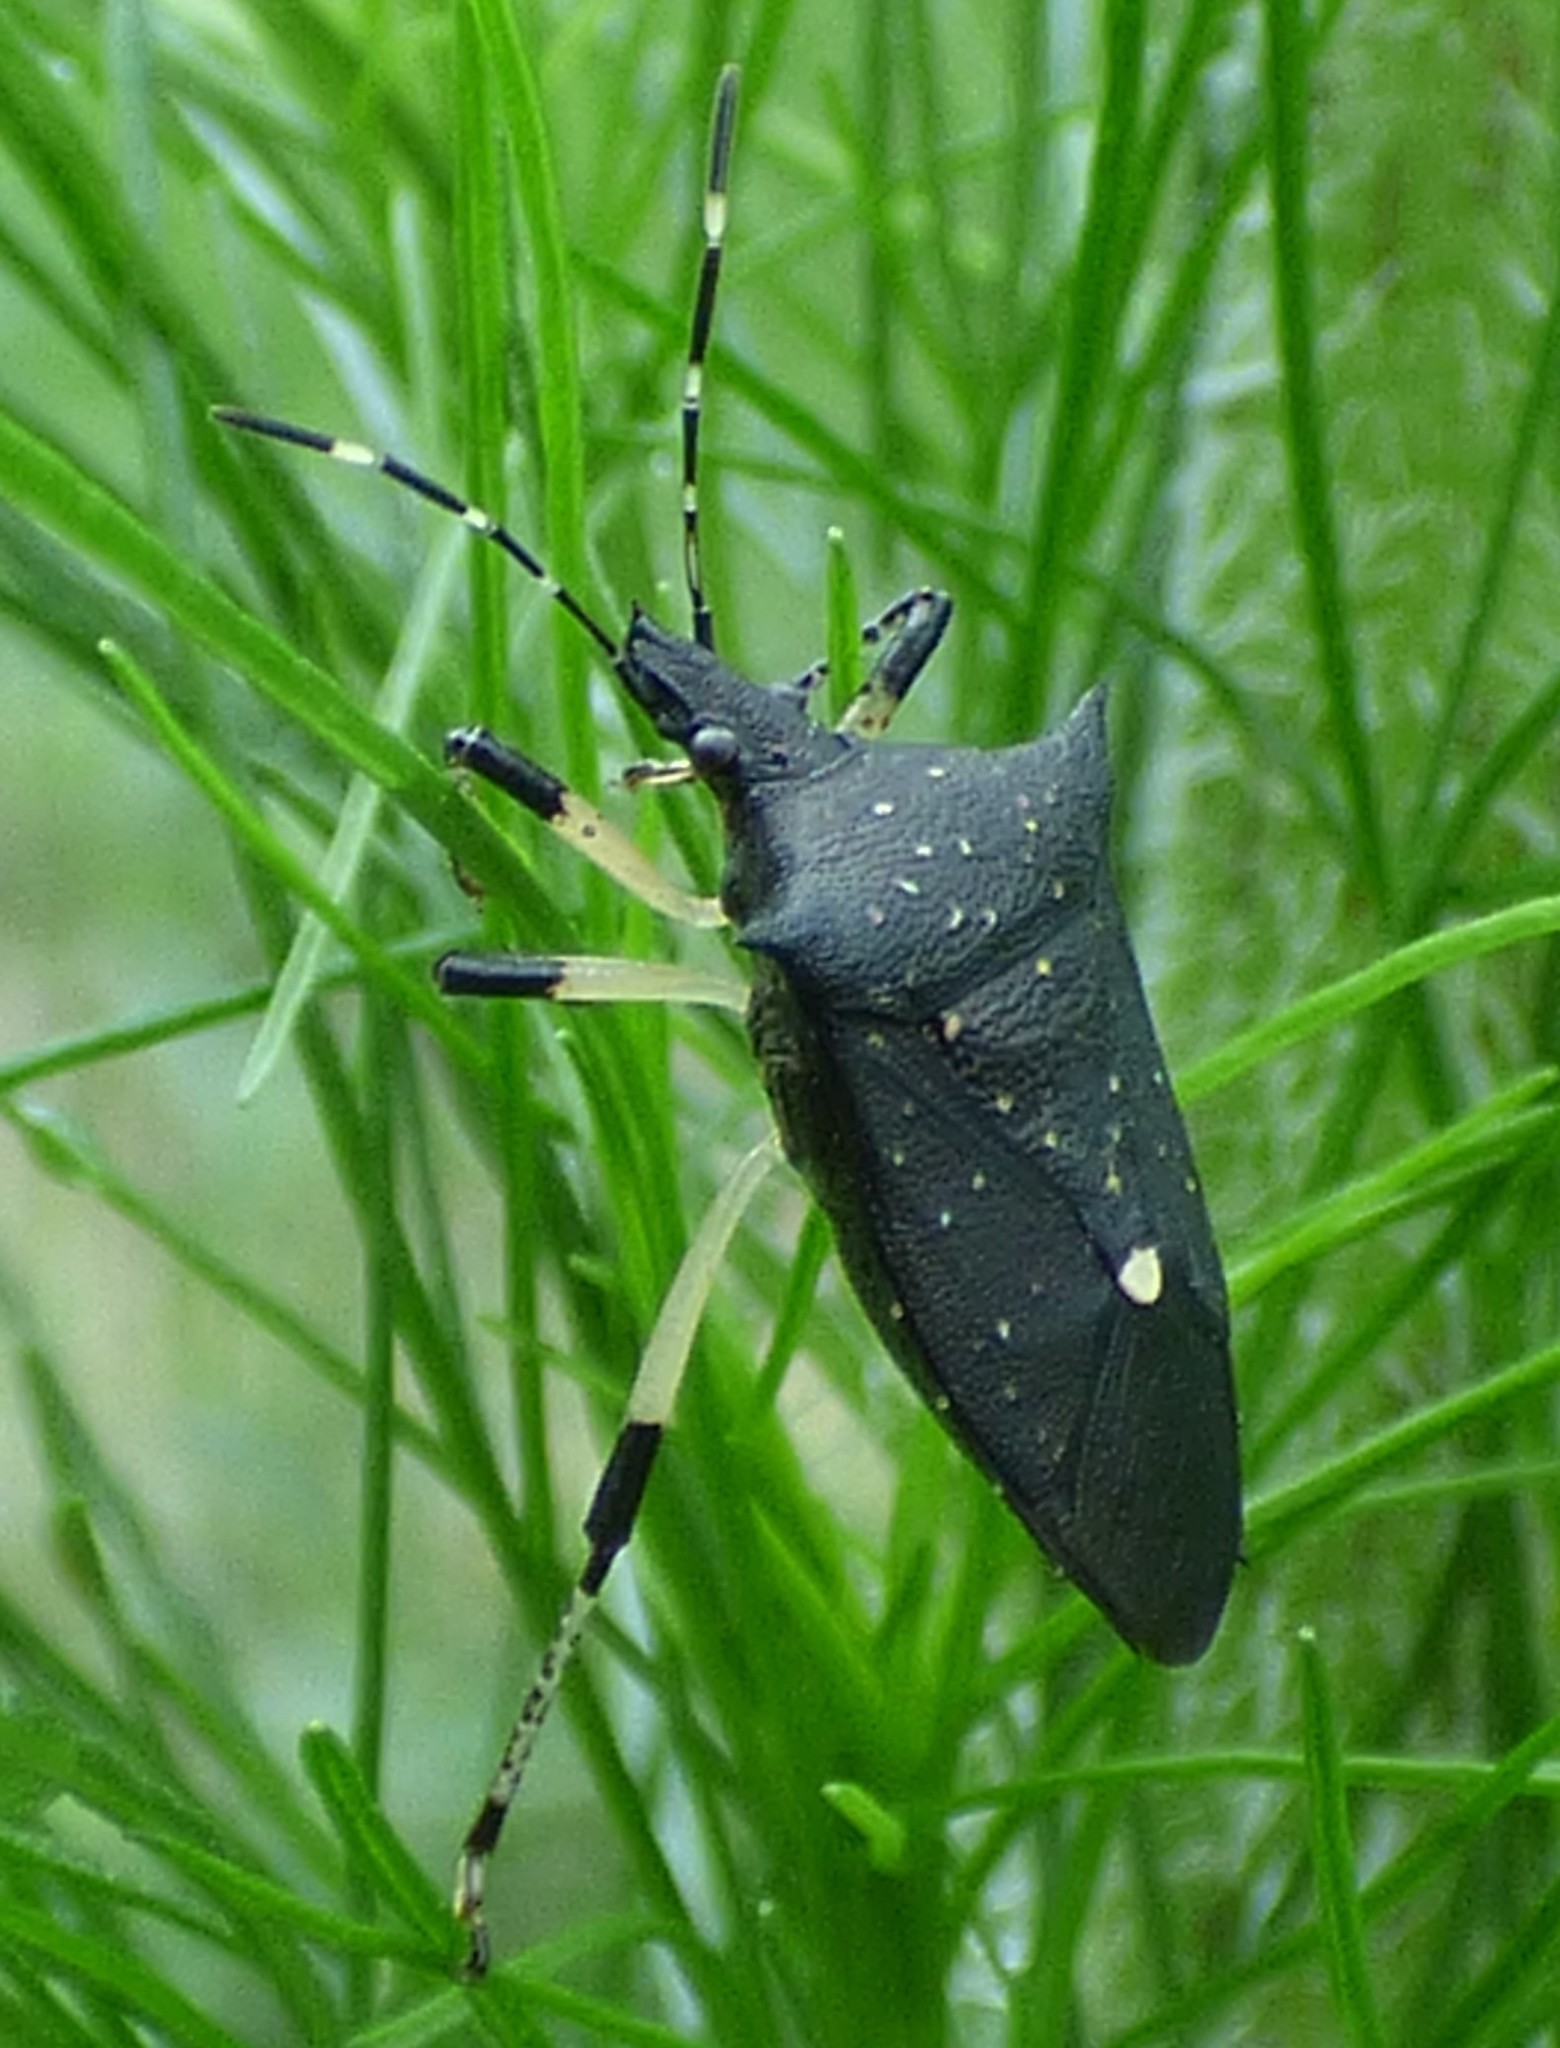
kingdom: Animalia
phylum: Arthropoda
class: Insecta
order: Hemiptera
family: Pentatomidae
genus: Proxys
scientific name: Proxys punctulatus
